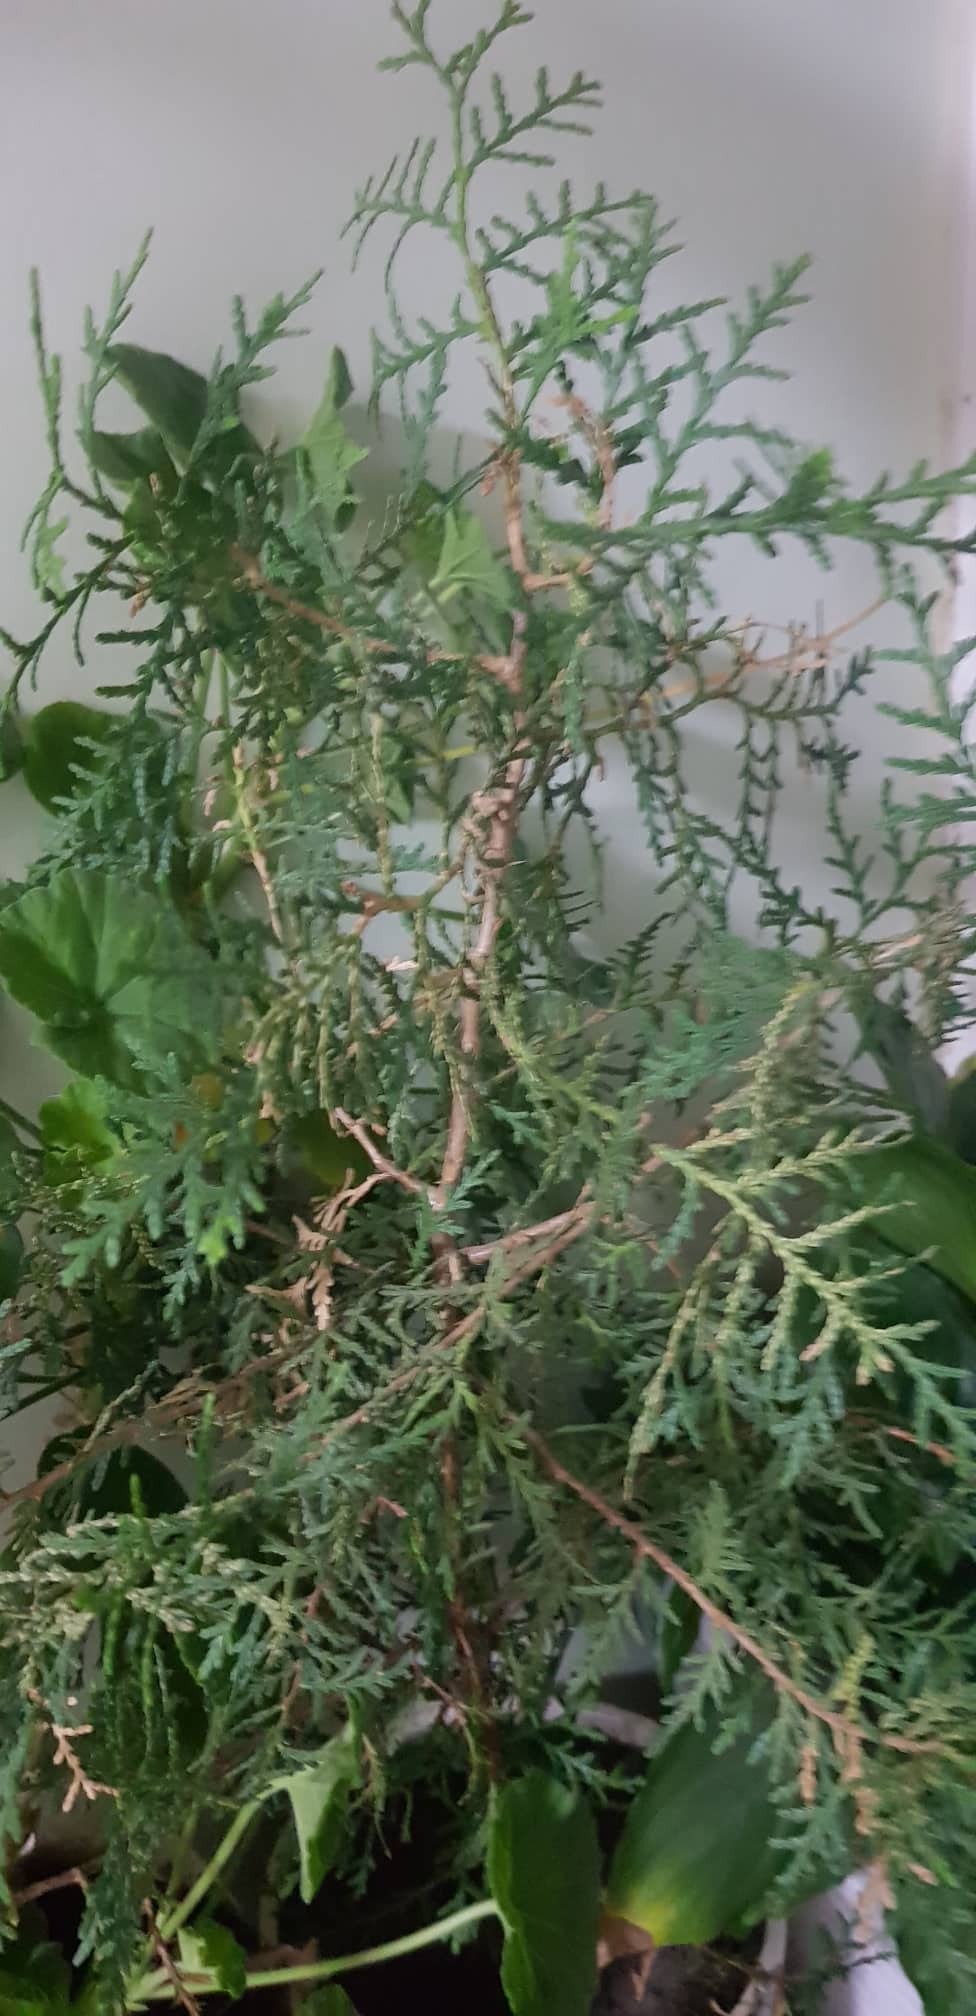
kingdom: Plantae
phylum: Tracheophyta
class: Pinopsida
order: Pinales
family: Cupressaceae
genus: Thuja
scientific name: Thuja occidentalis
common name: Northern white-cedar
